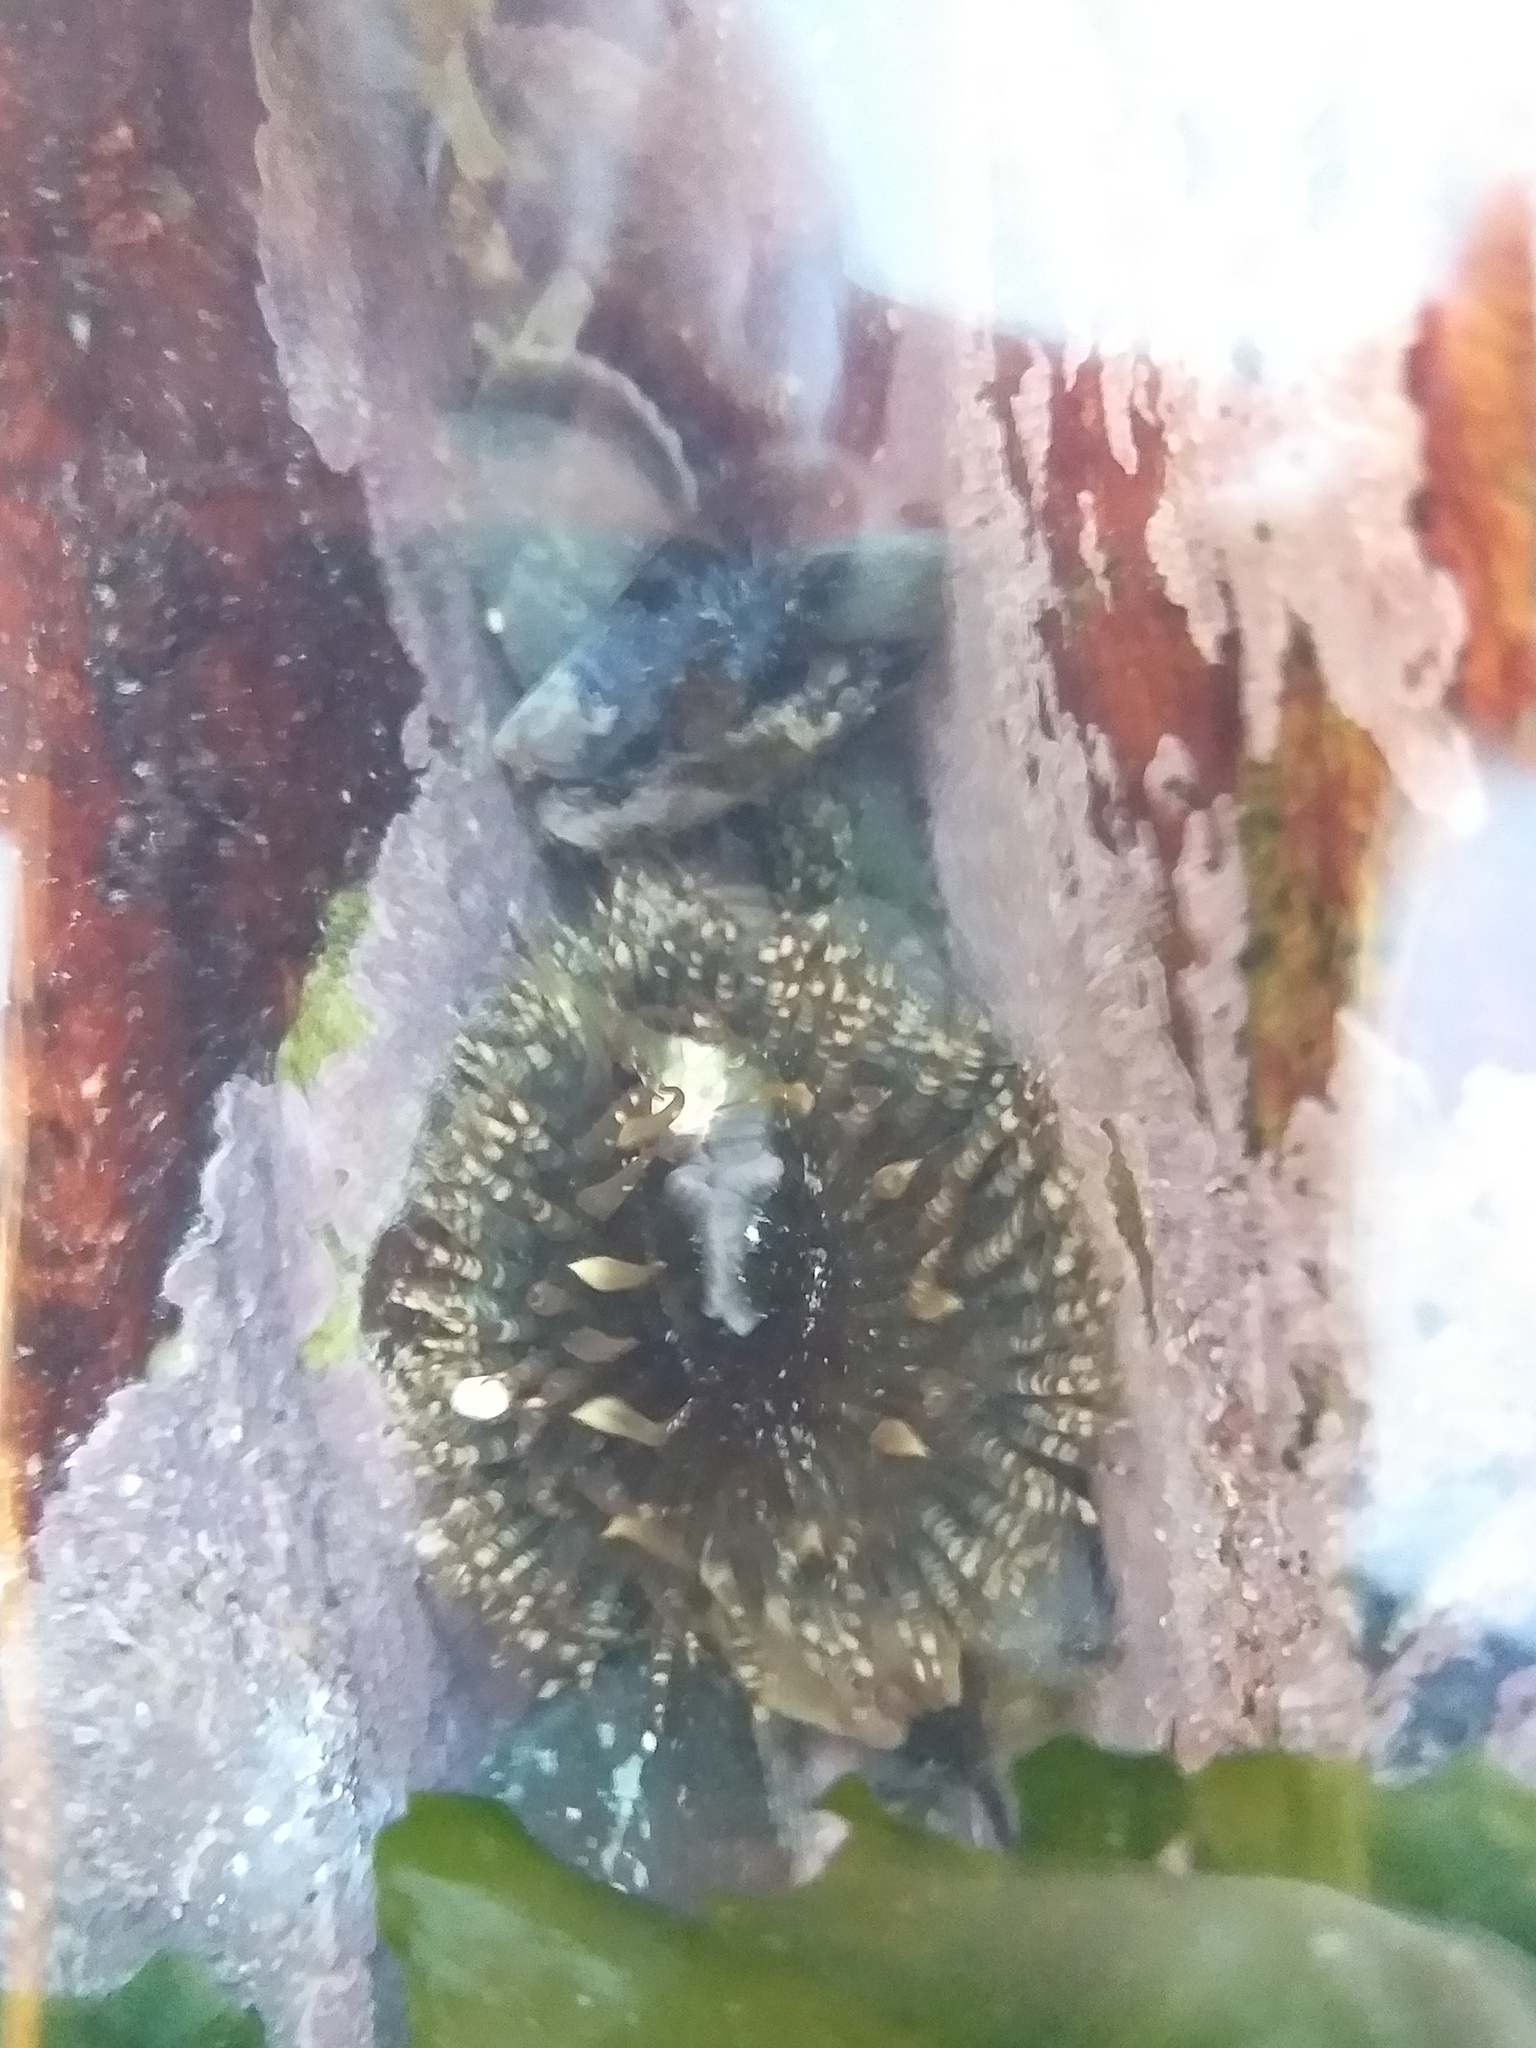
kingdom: Animalia
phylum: Cnidaria
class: Anthozoa
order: Actiniaria
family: Actiniidae
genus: Bunodactis
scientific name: Bunodactis reynaudi
